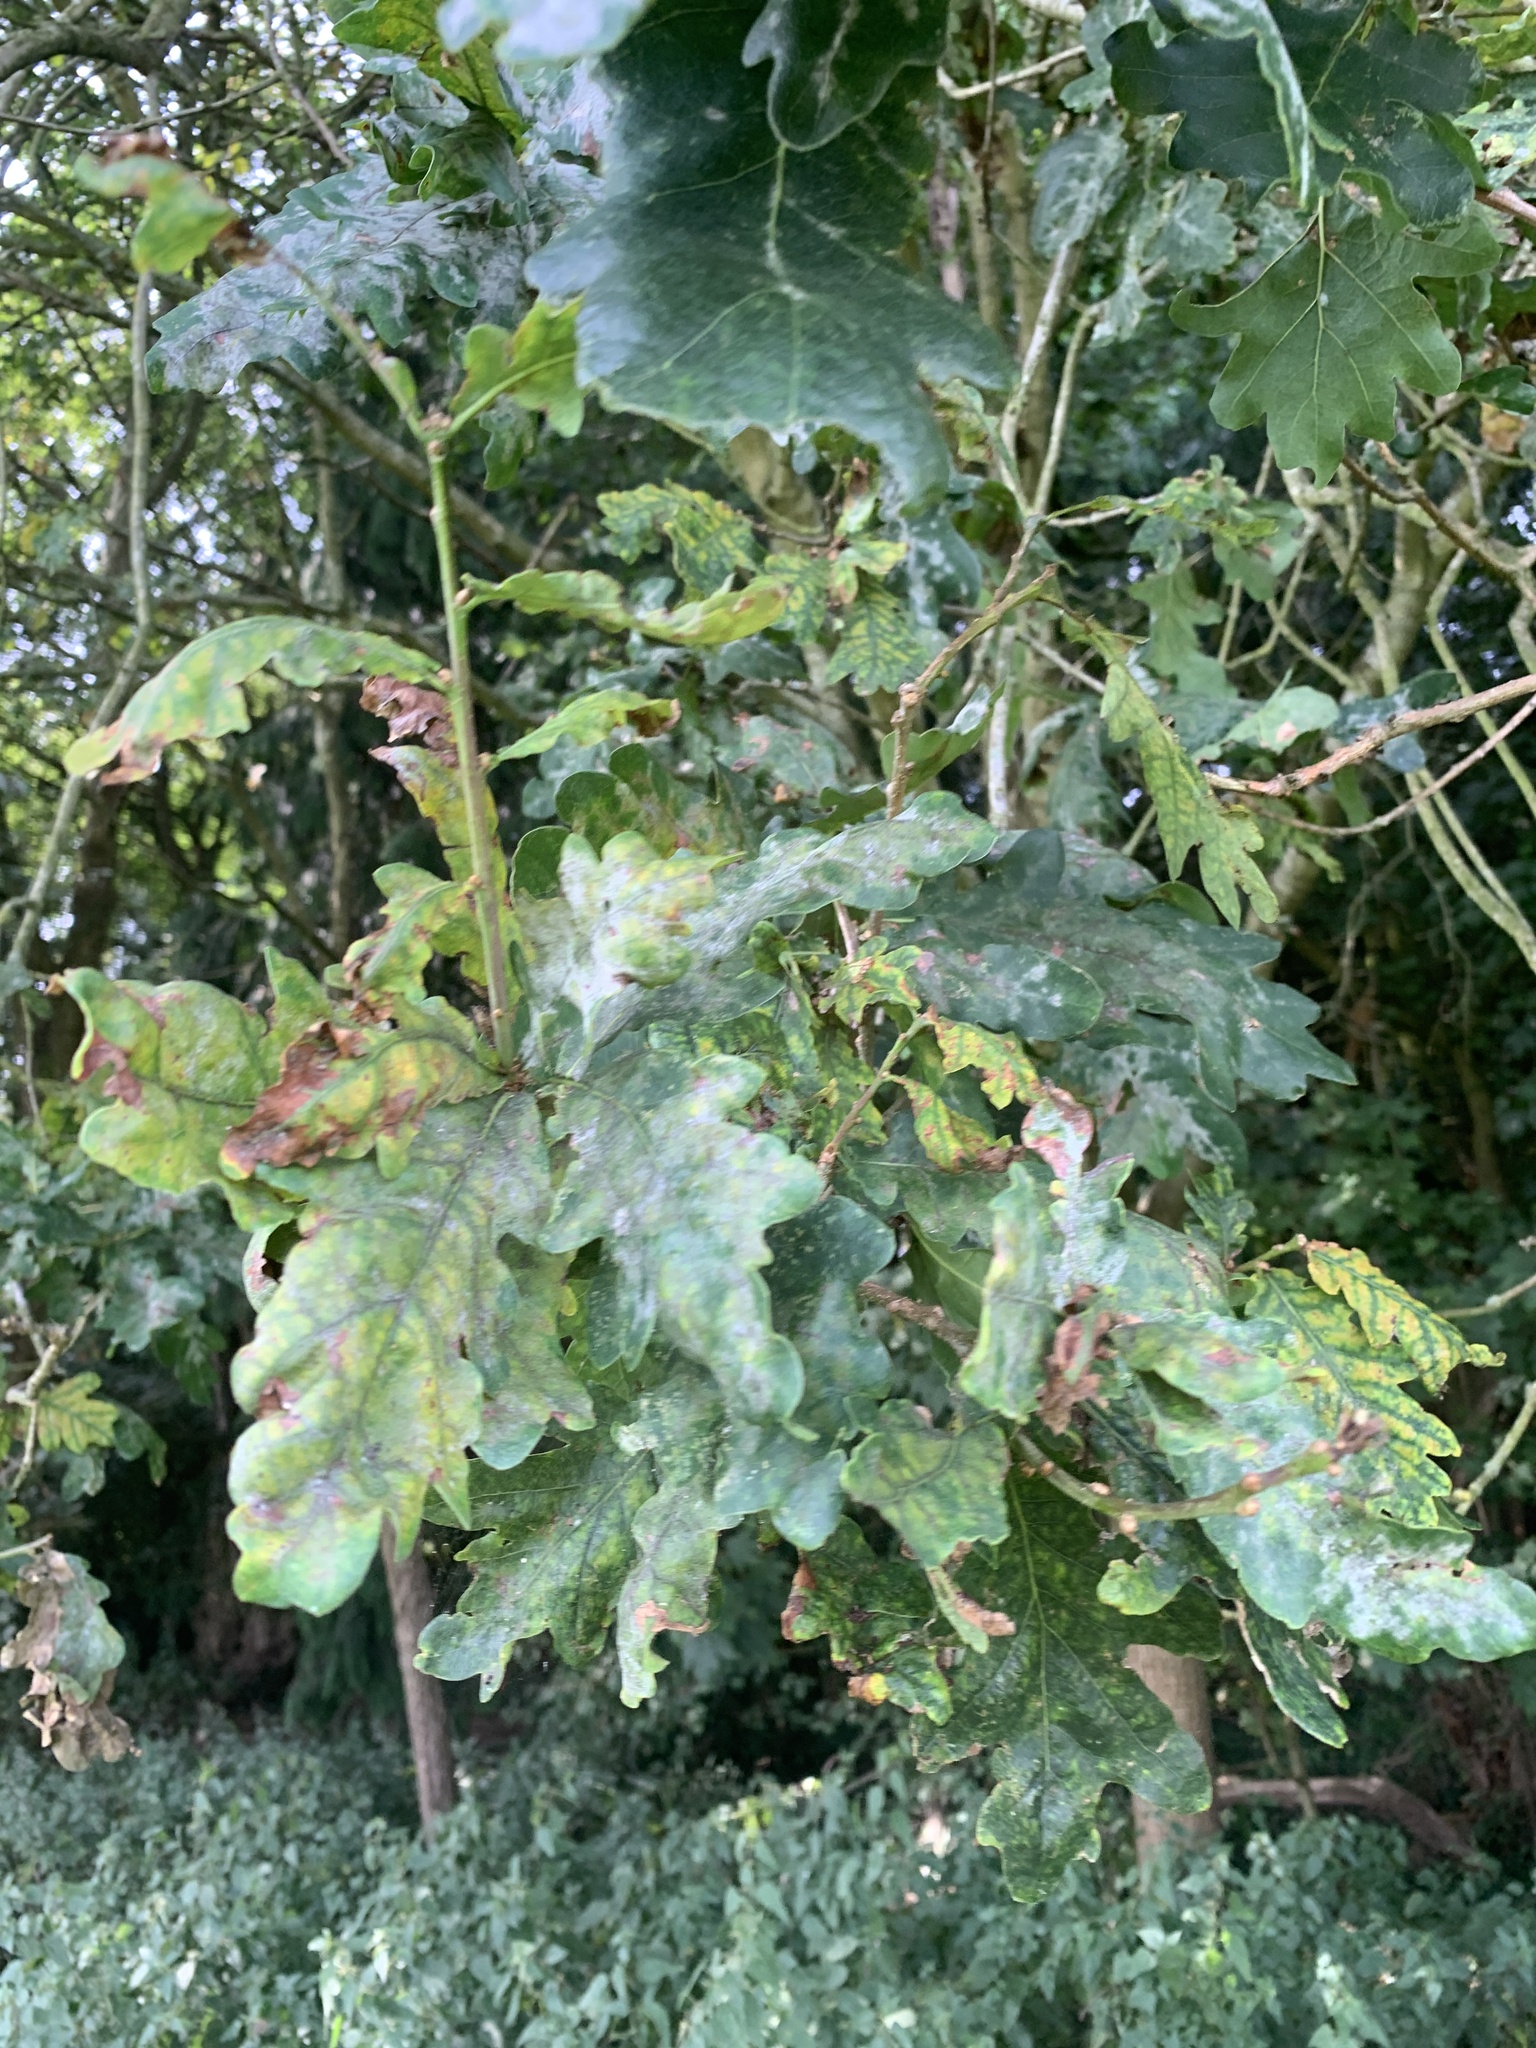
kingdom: Plantae
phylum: Tracheophyta
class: Magnoliopsida
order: Fagales
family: Fagaceae
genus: Quercus
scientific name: Quercus robur
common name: Pedunculate oak
